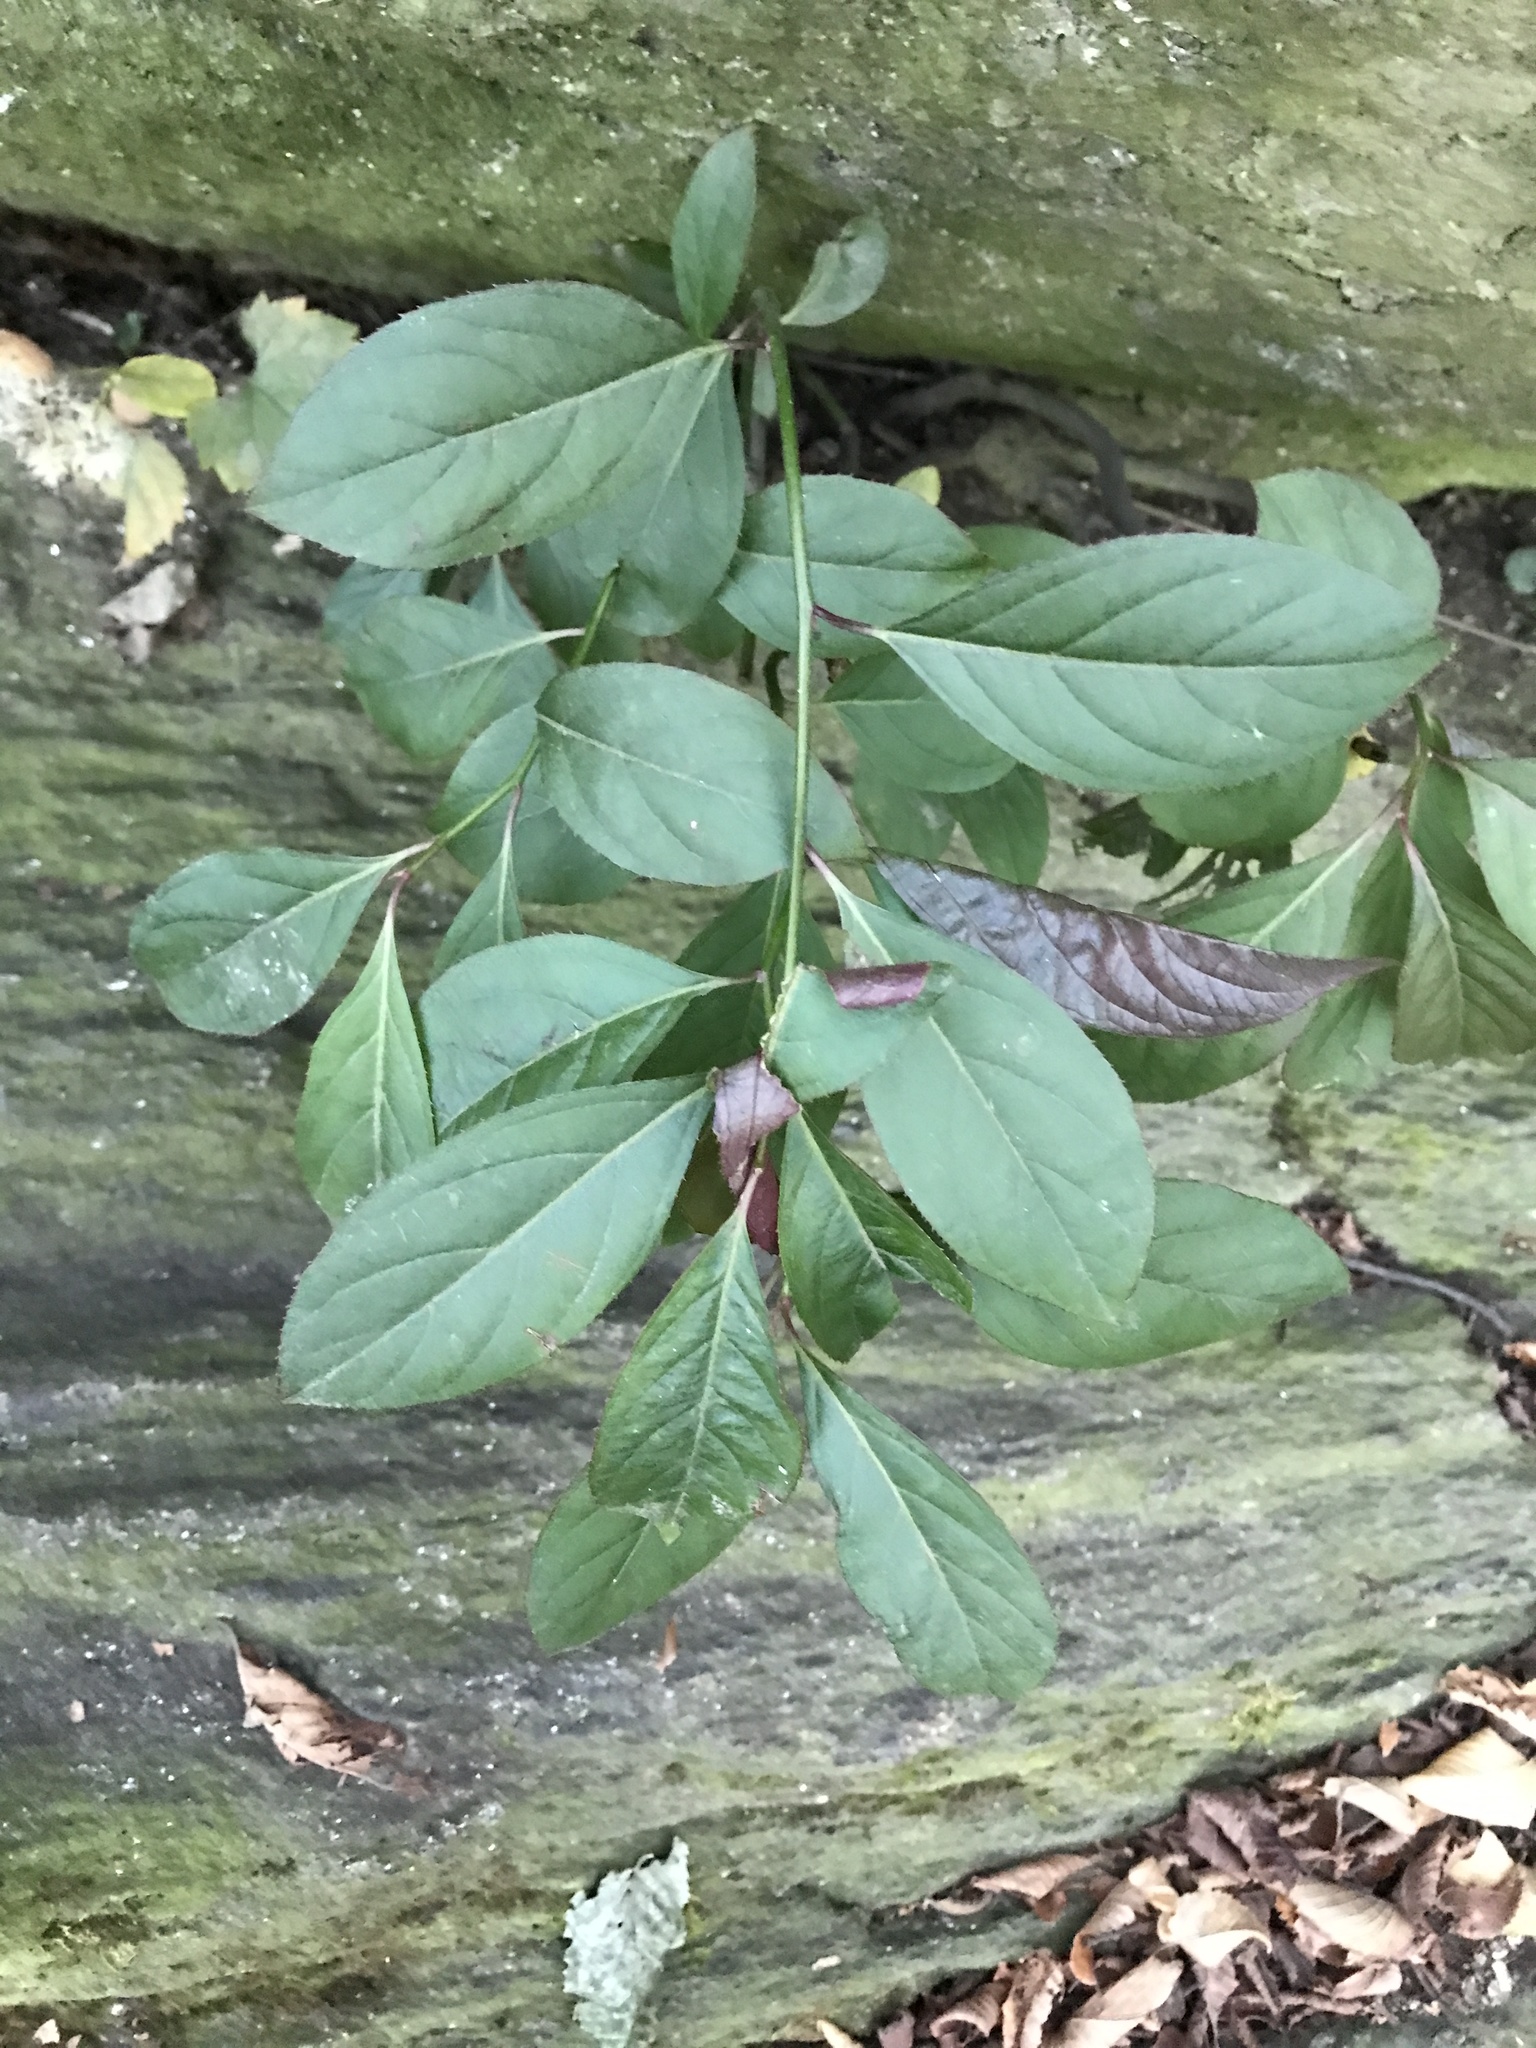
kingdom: Plantae
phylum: Tracheophyta
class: Magnoliopsida
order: Saxifragales
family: Iteaceae
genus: Itea
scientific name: Itea virginica
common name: Sweetspire
